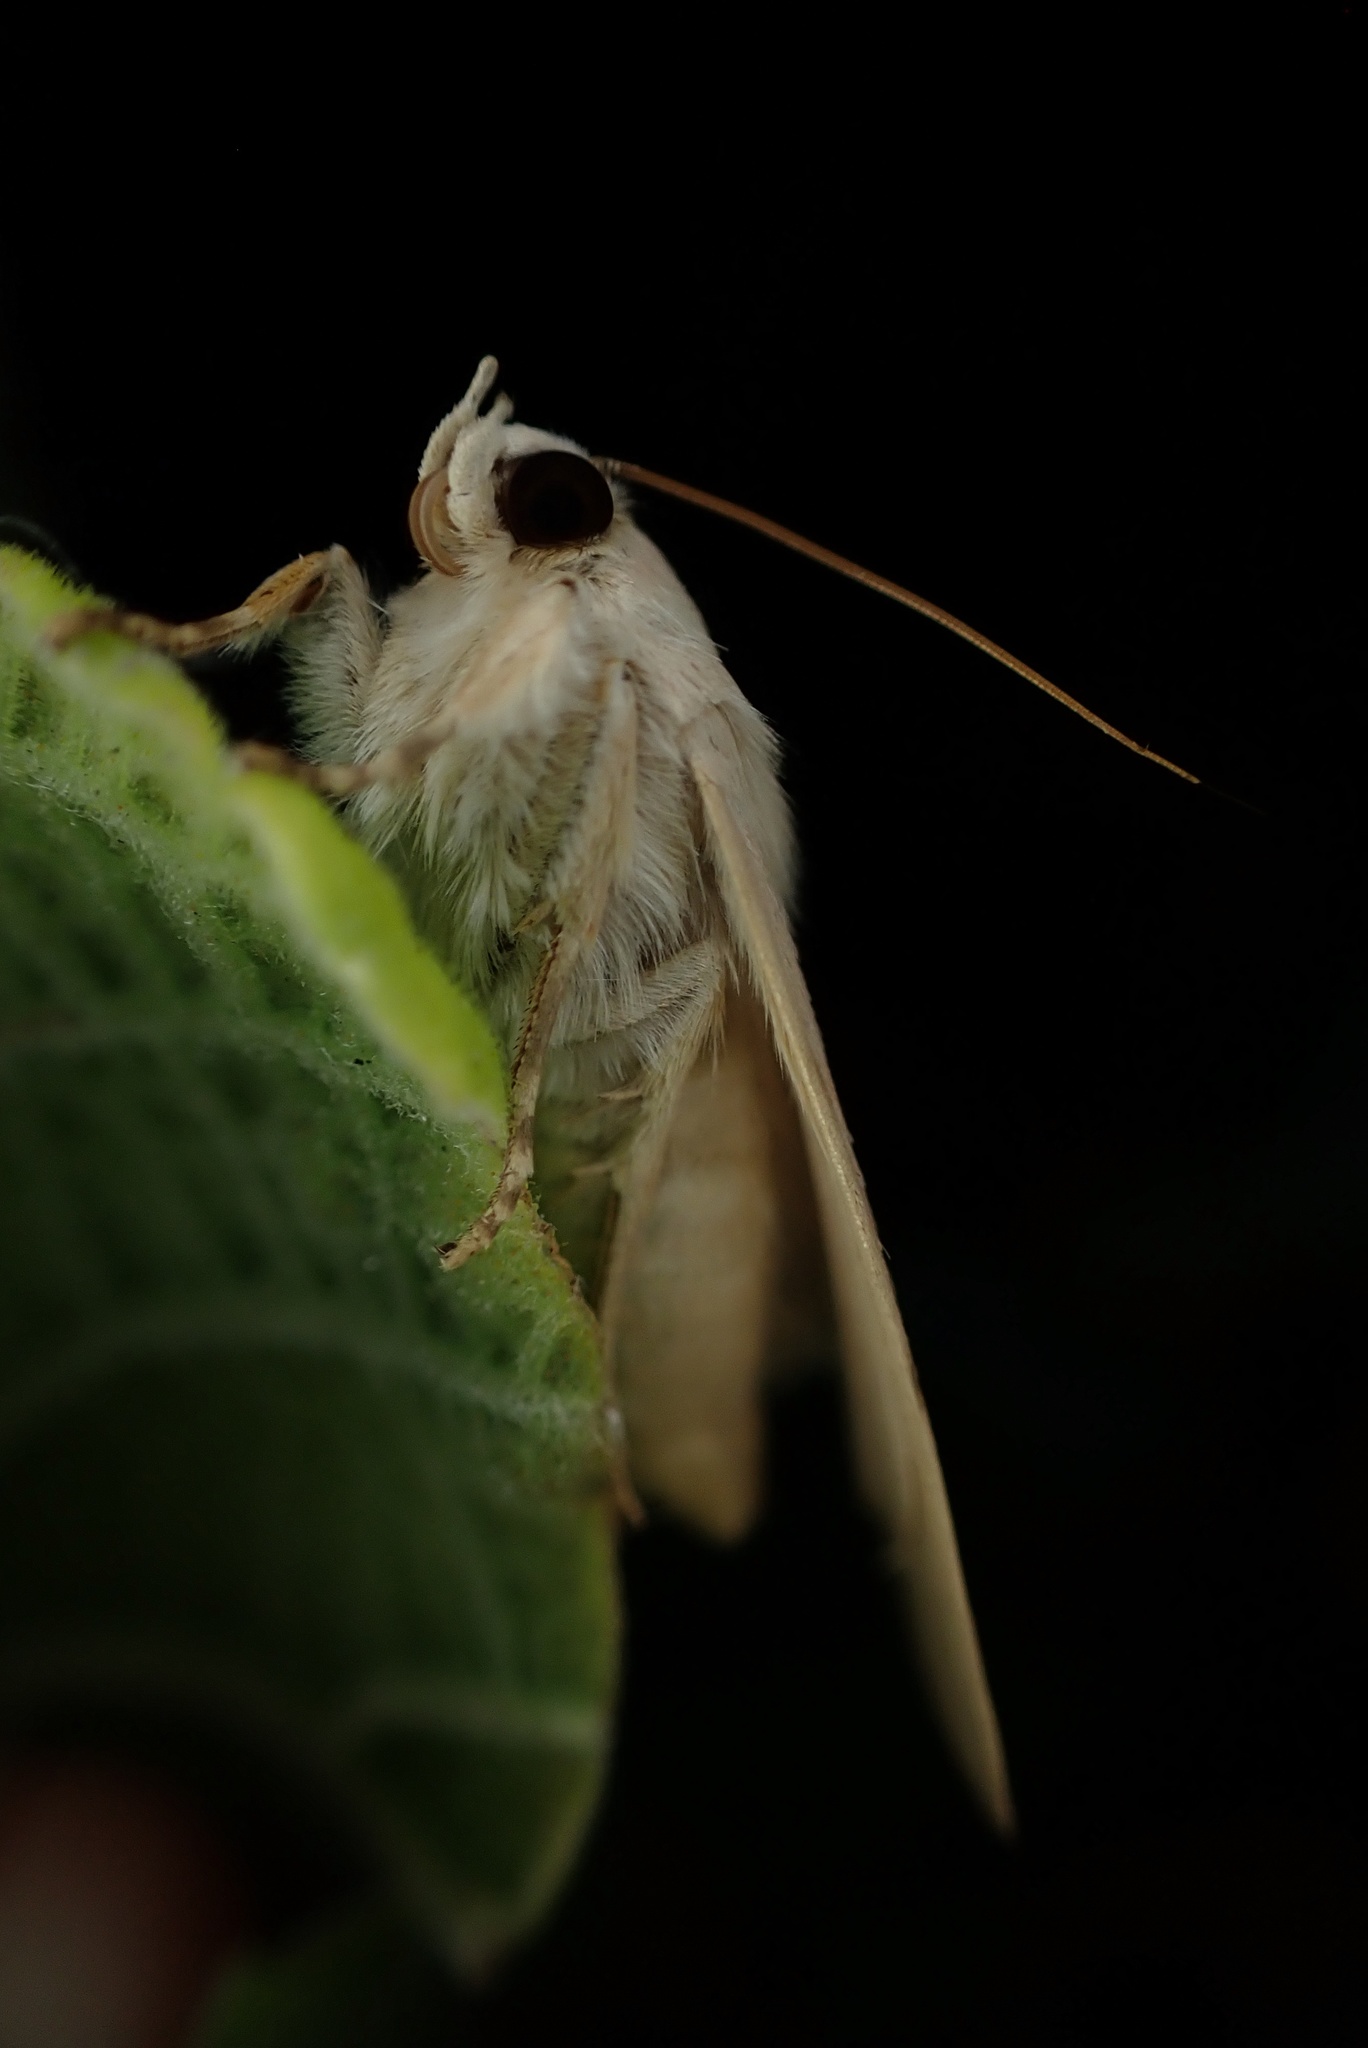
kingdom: Animalia
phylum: Arthropoda
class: Insecta
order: Lepidoptera
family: Erebidae
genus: Litoprosopus
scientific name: Litoprosopus coachella
